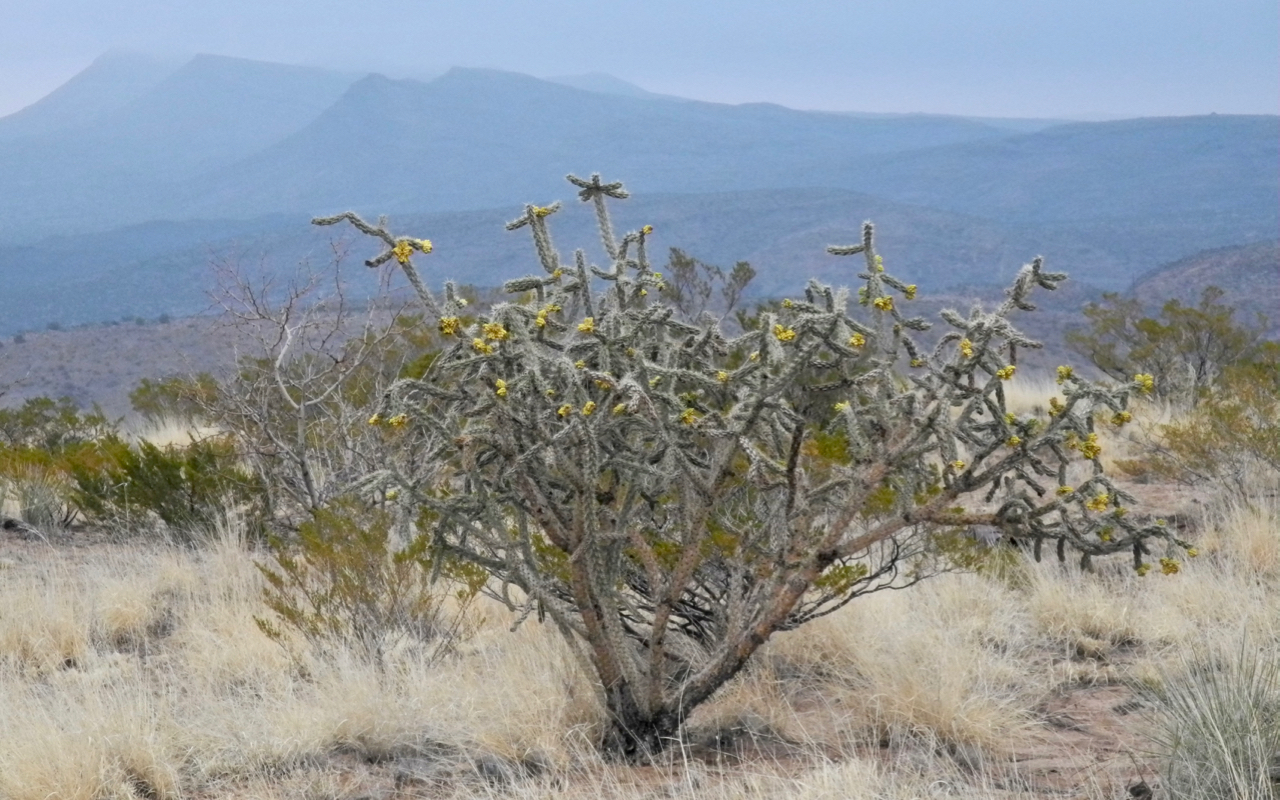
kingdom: Plantae
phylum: Tracheophyta
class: Magnoliopsida
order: Caryophyllales
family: Cactaceae
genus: Cylindropuntia
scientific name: Cylindropuntia imbricata
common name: Candelabrum cactus
